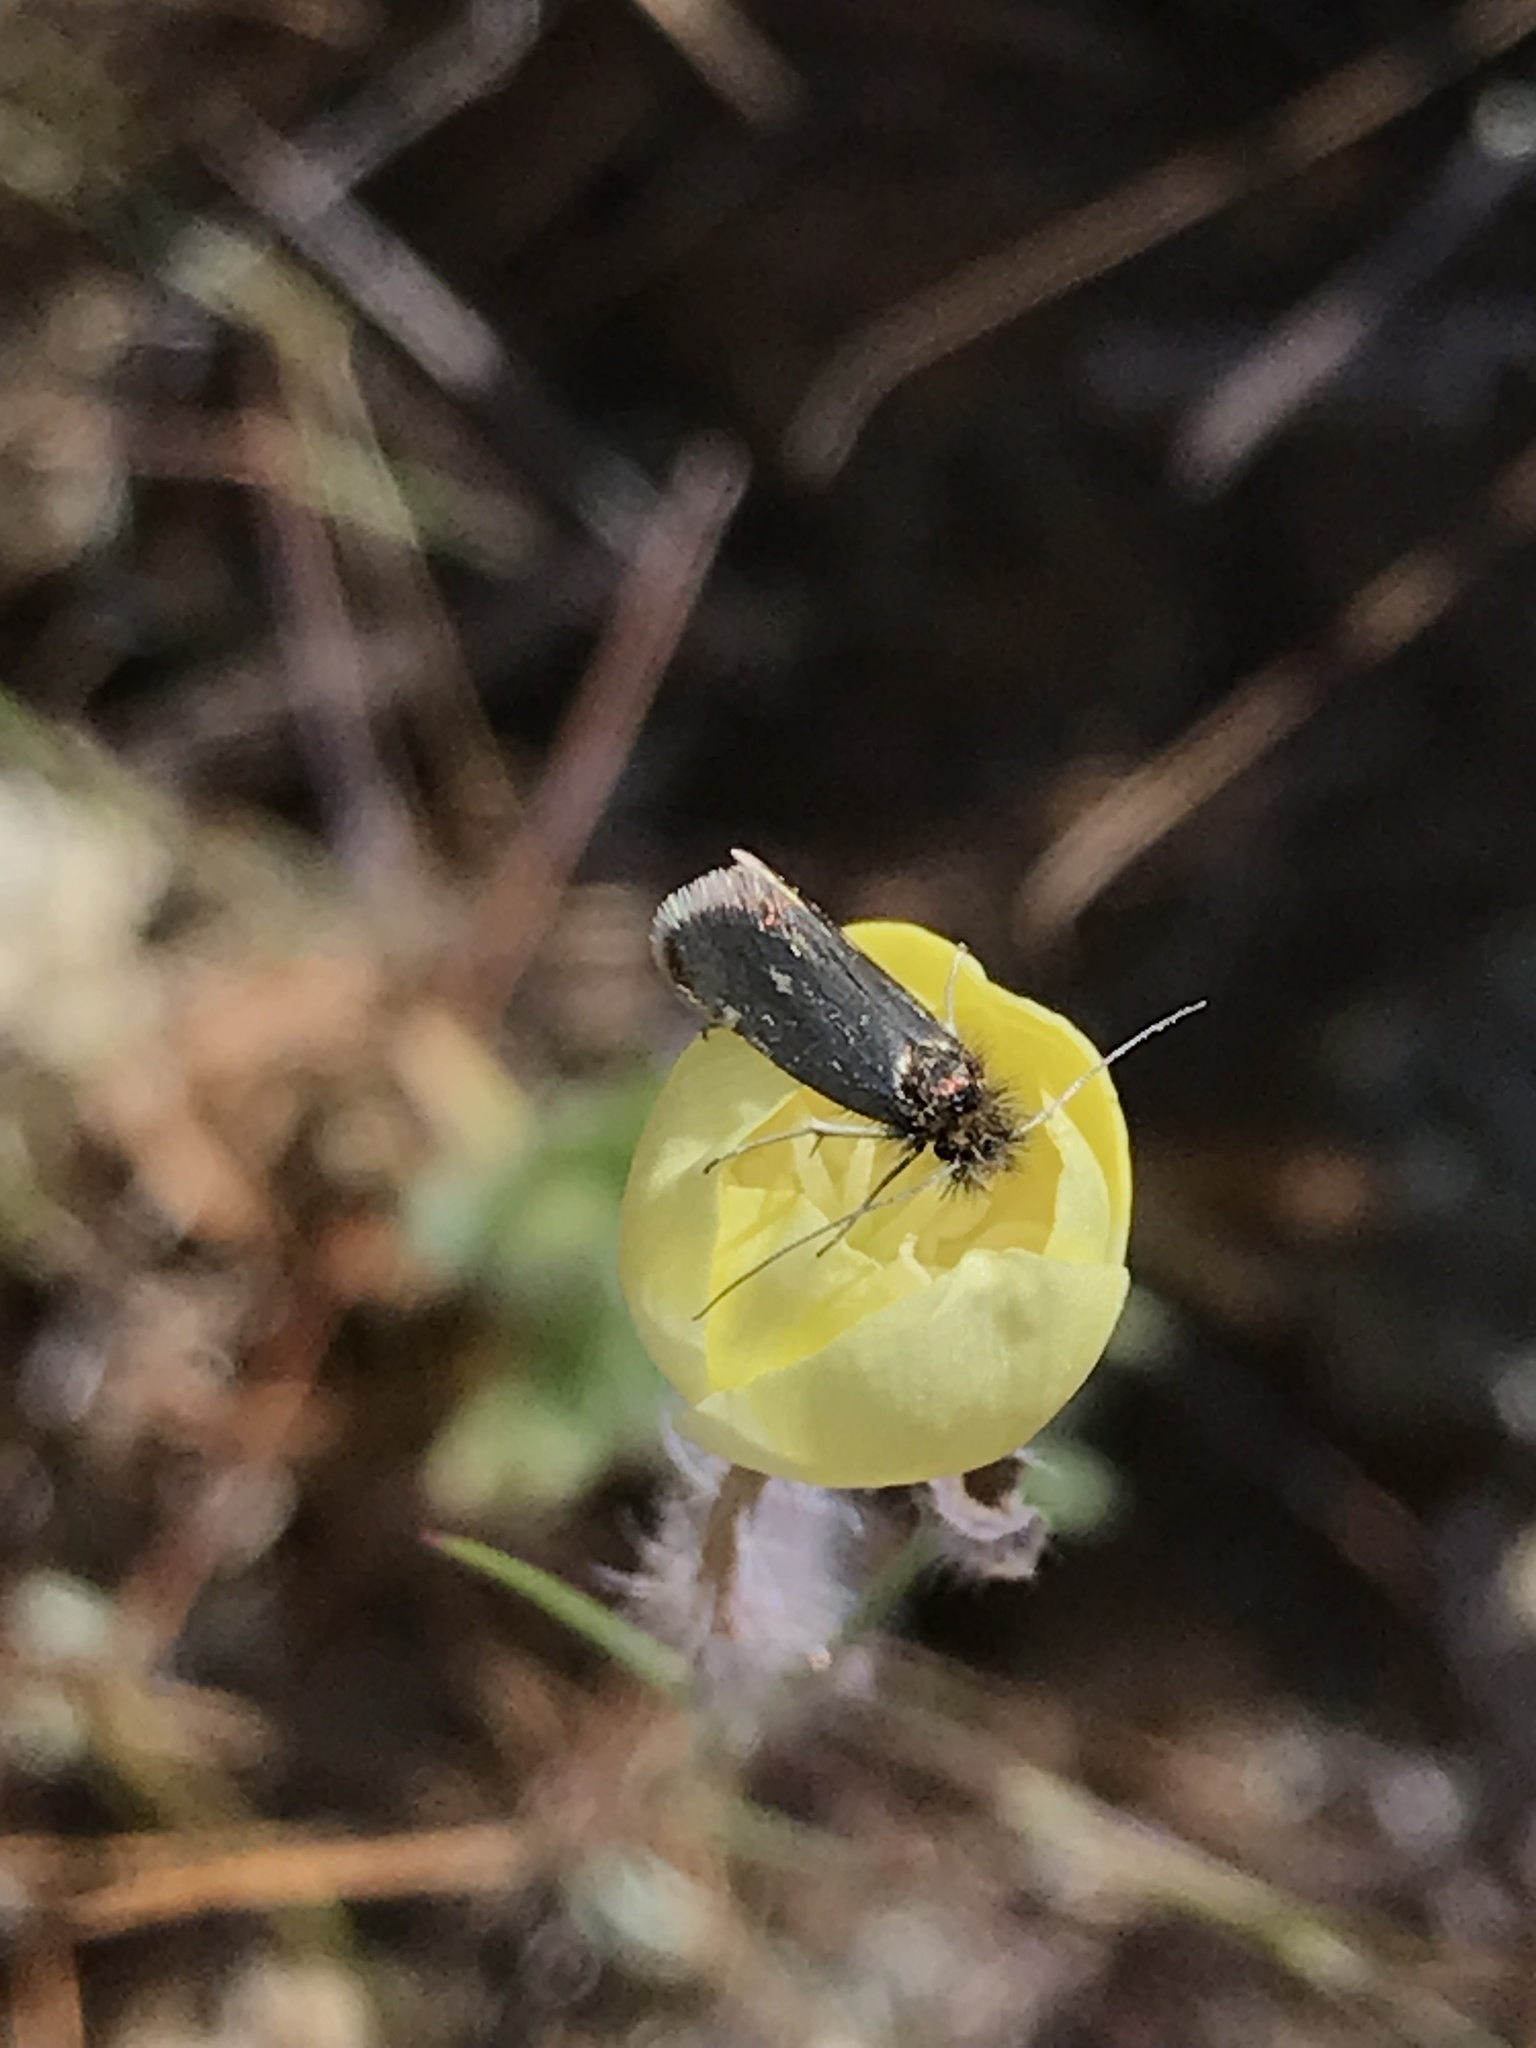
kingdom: Animalia
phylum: Arthropoda
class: Insecta
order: Lepidoptera
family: Adelidae
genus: Adela
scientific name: Adela oplerella
